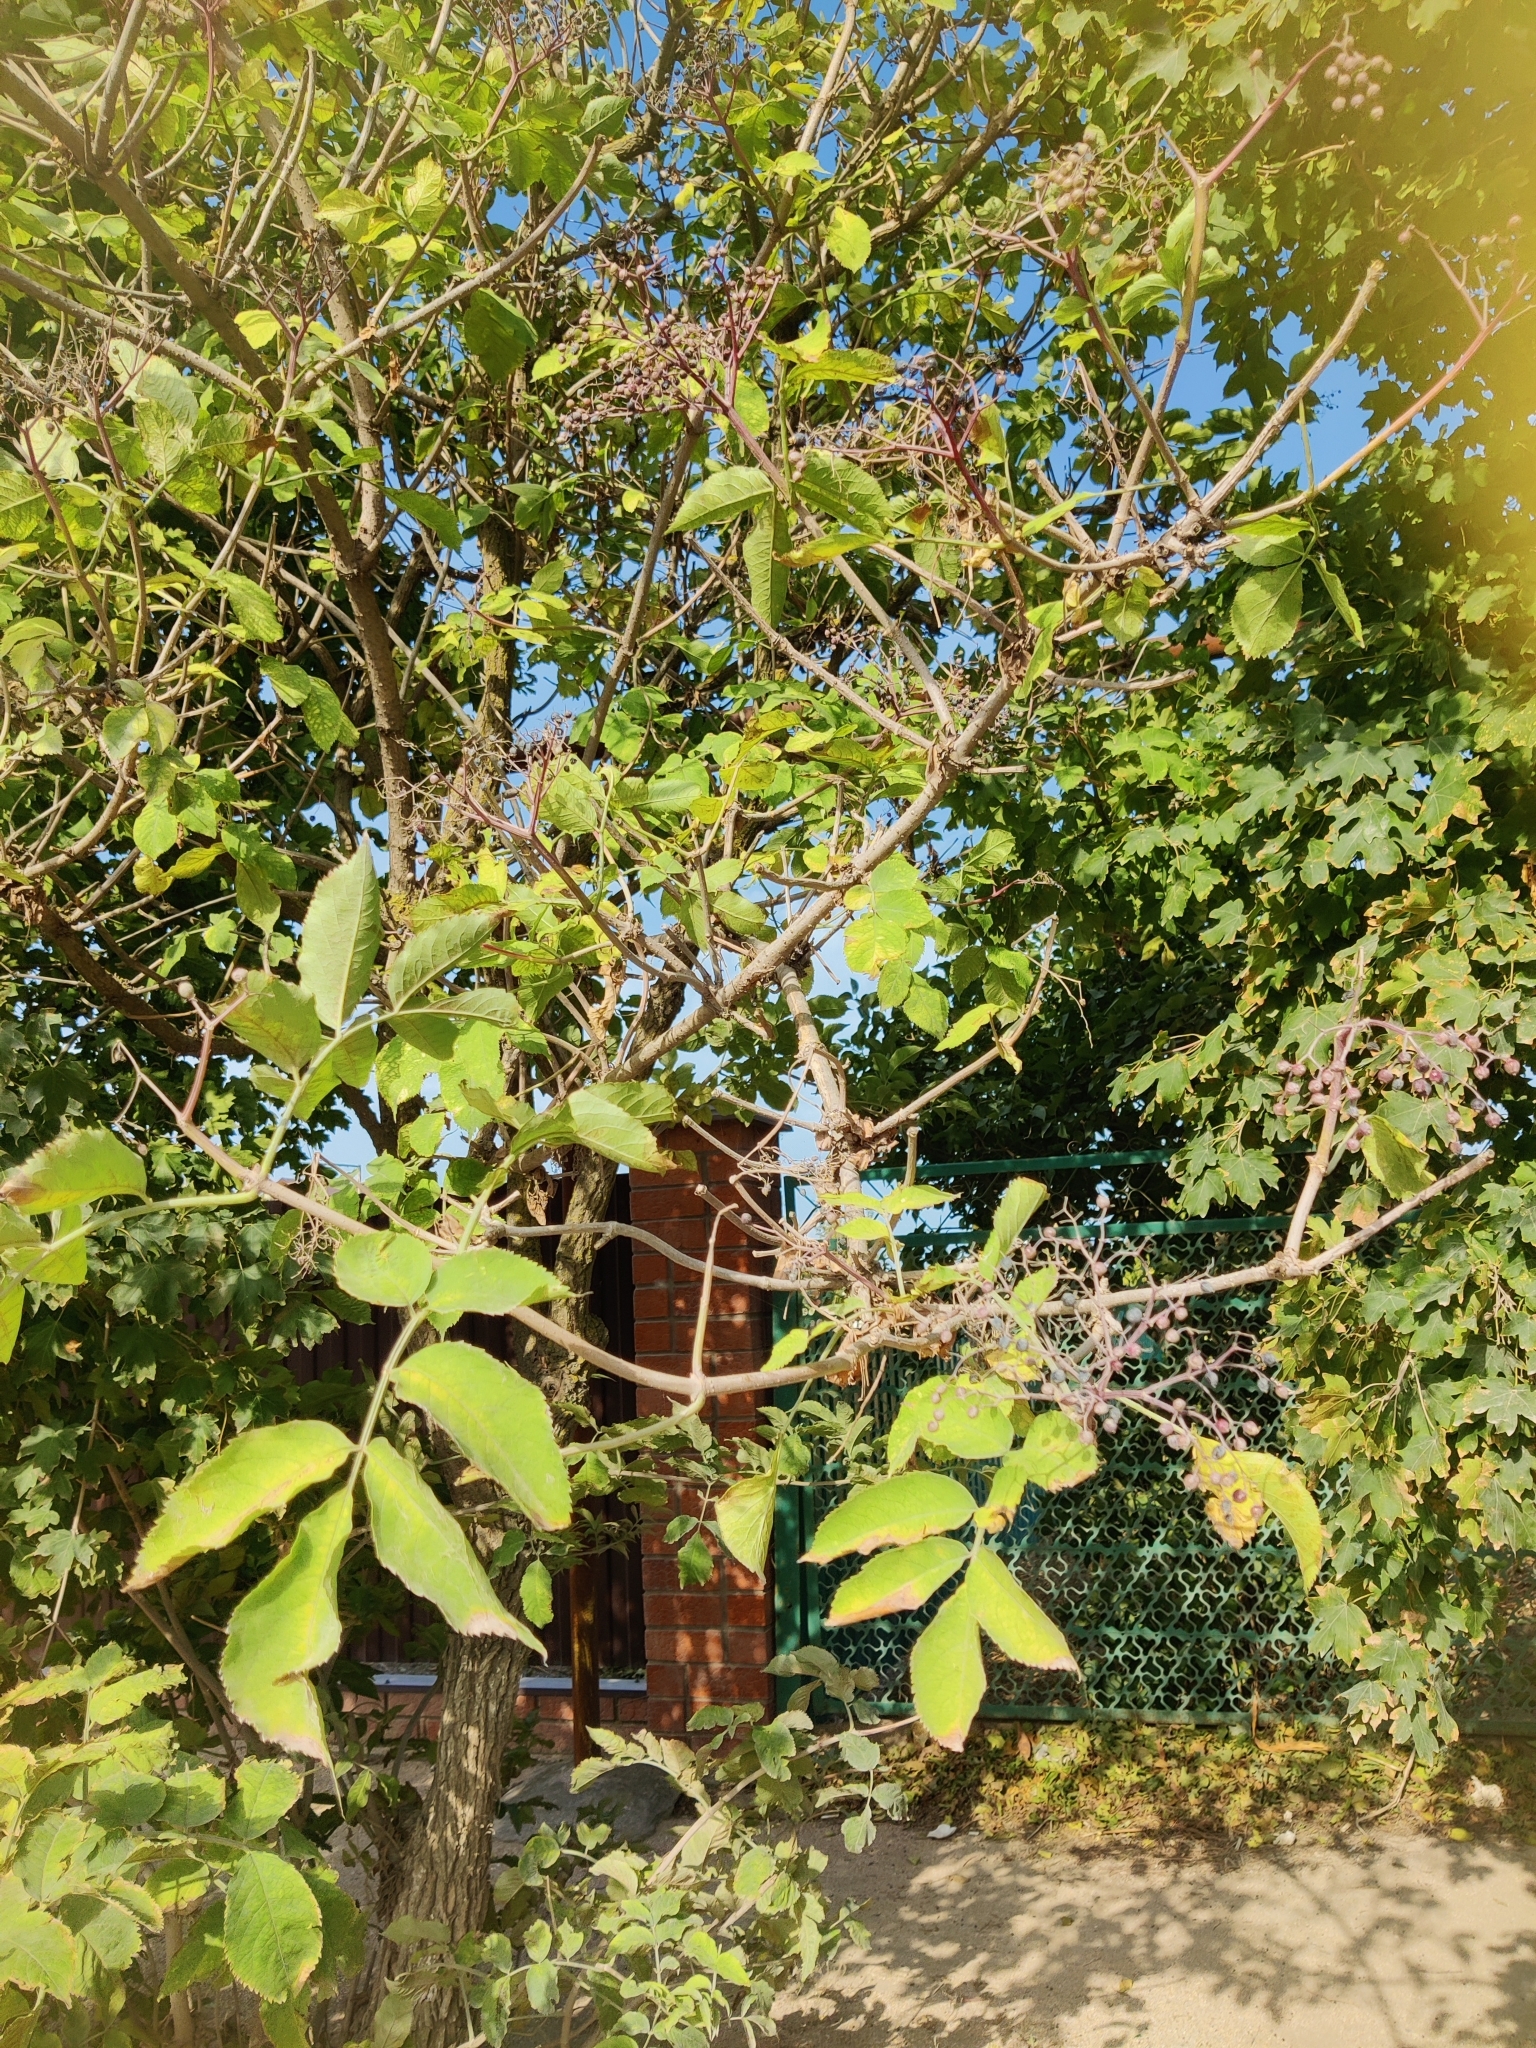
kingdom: Plantae
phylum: Tracheophyta
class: Magnoliopsida
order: Dipsacales
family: Viburnaceae
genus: Sambucus
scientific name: Sambucus nigra
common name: Elder
